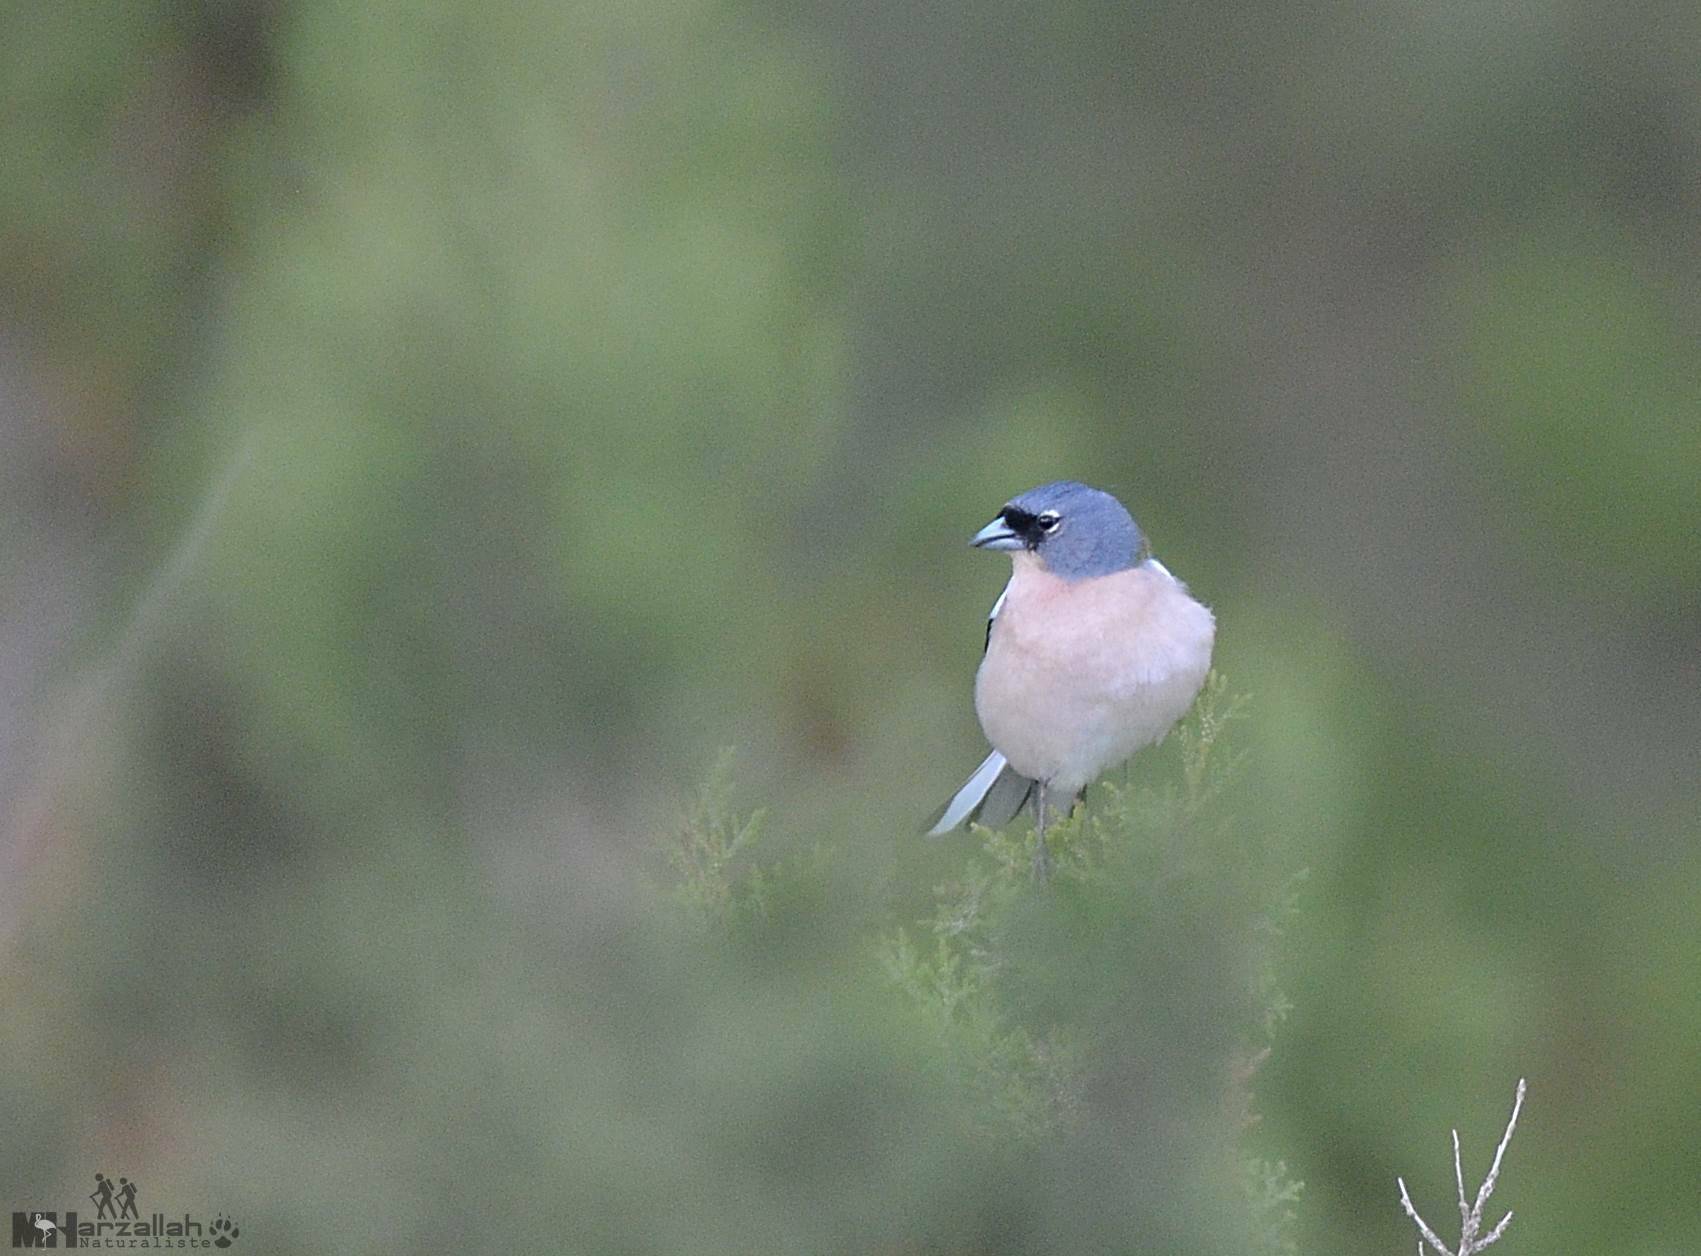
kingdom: Animalia
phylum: Chordata
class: Aves
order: Passeriformes
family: Fringillidae
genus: Fringilla
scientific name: Fringilla spodiogenys
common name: African chaffinch
